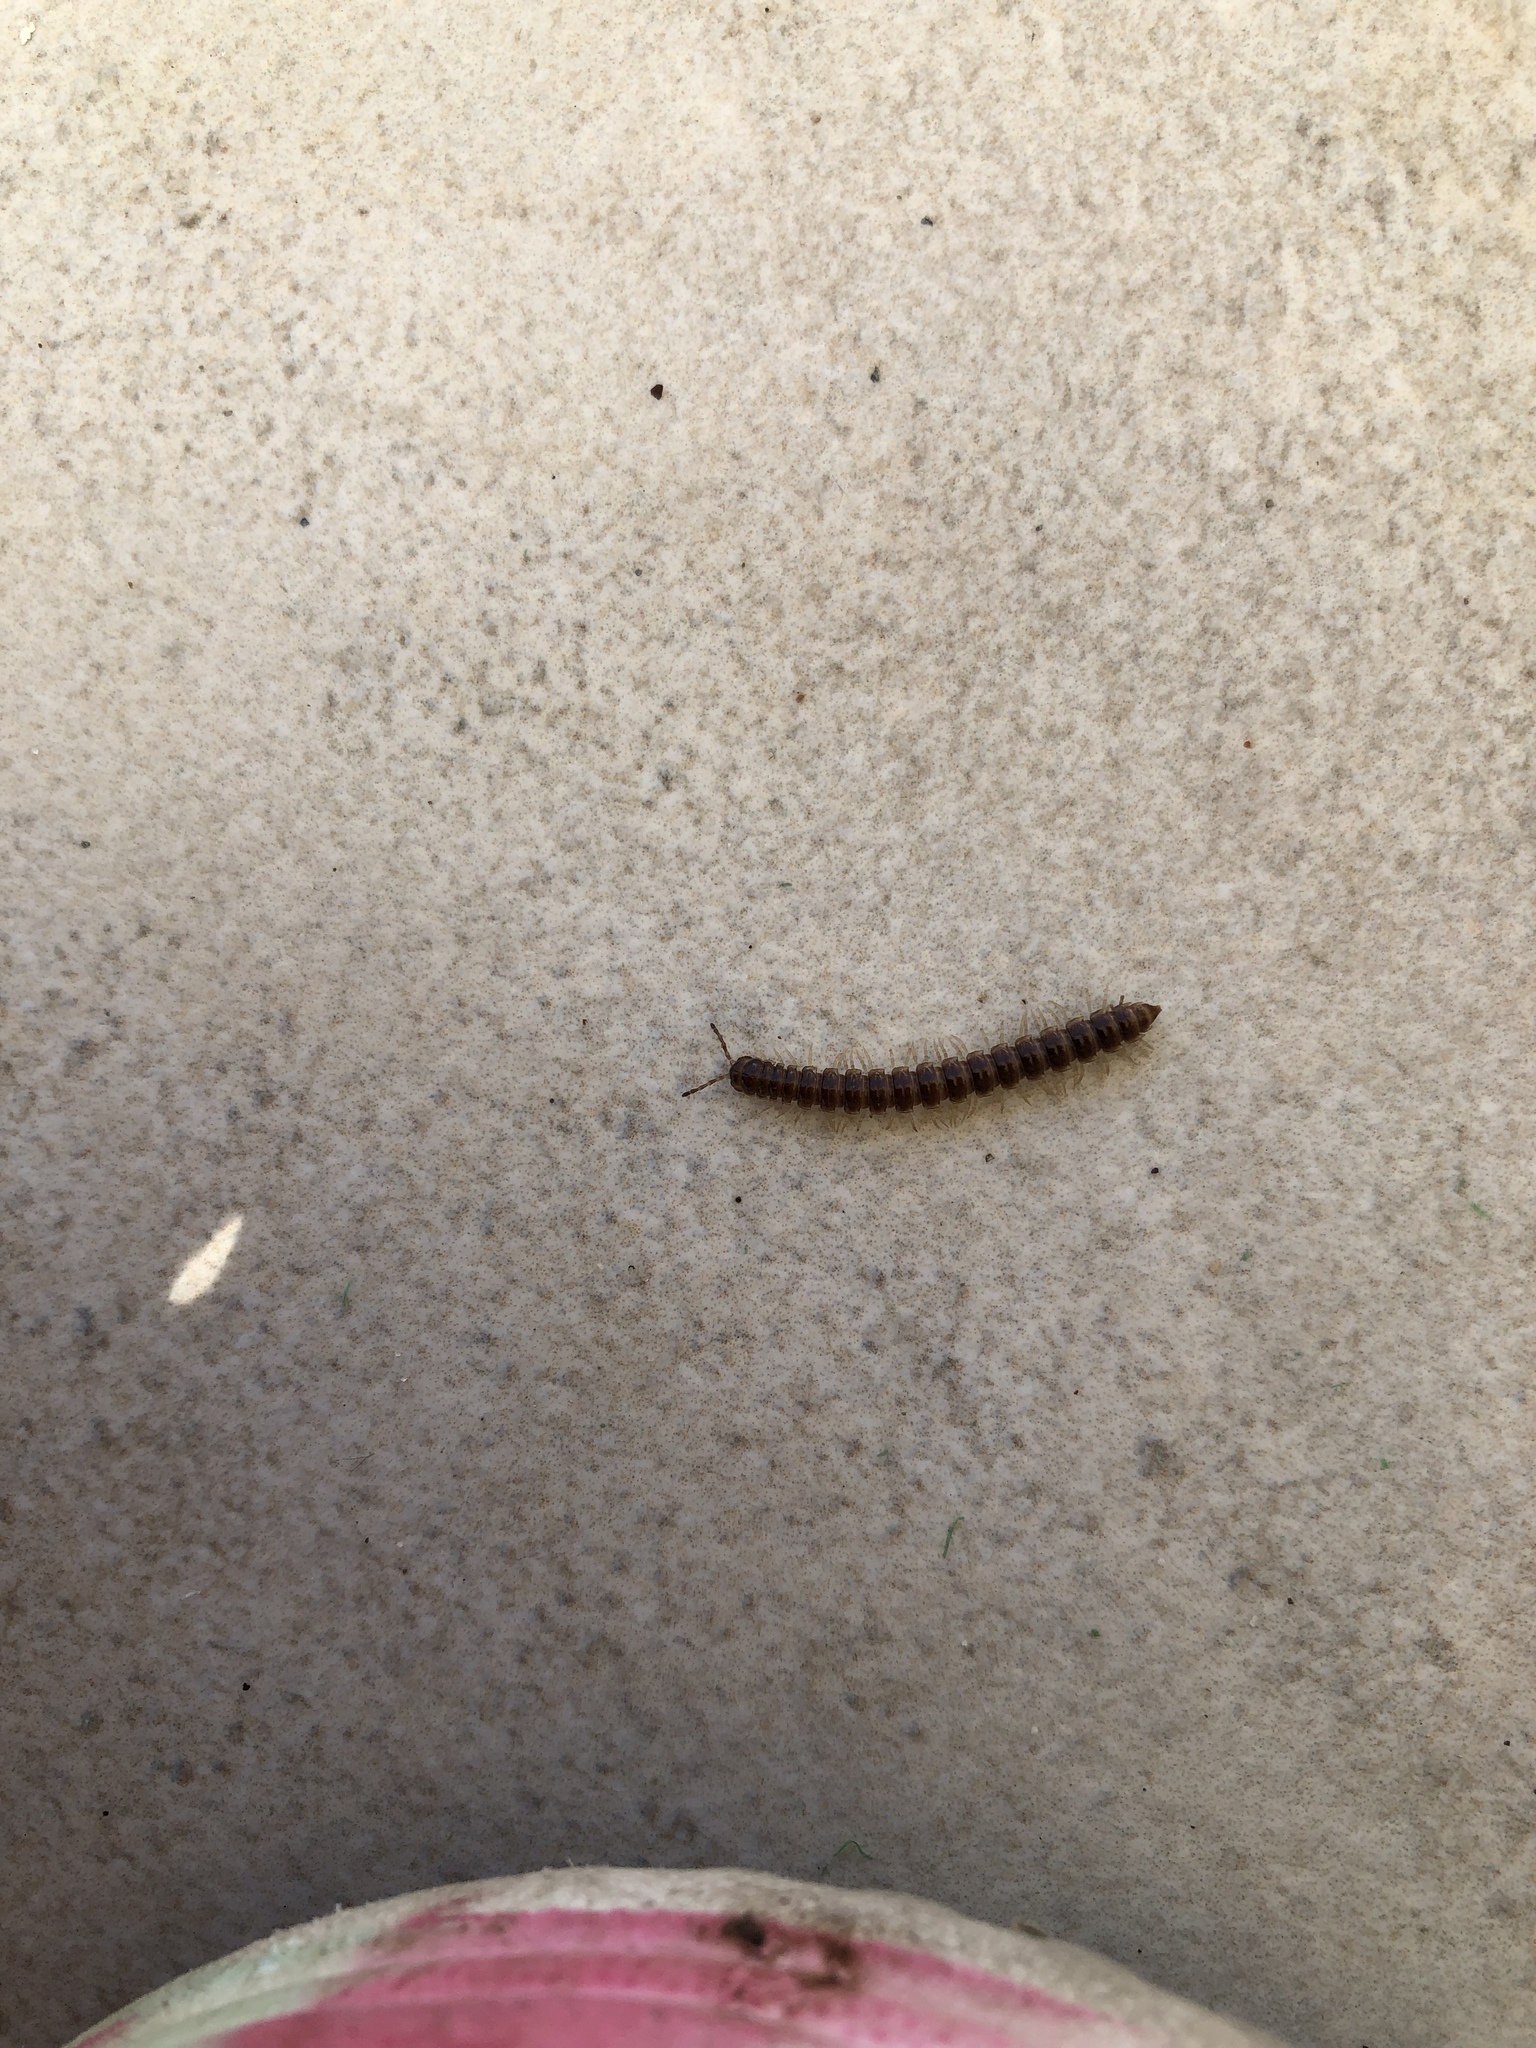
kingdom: Animalia
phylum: Arthropoda
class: Diplopoda
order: Polydesmida
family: Paradoxosomatidae
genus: Oxidus
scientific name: Oxidus gracilis
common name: Greenhouse millipede
